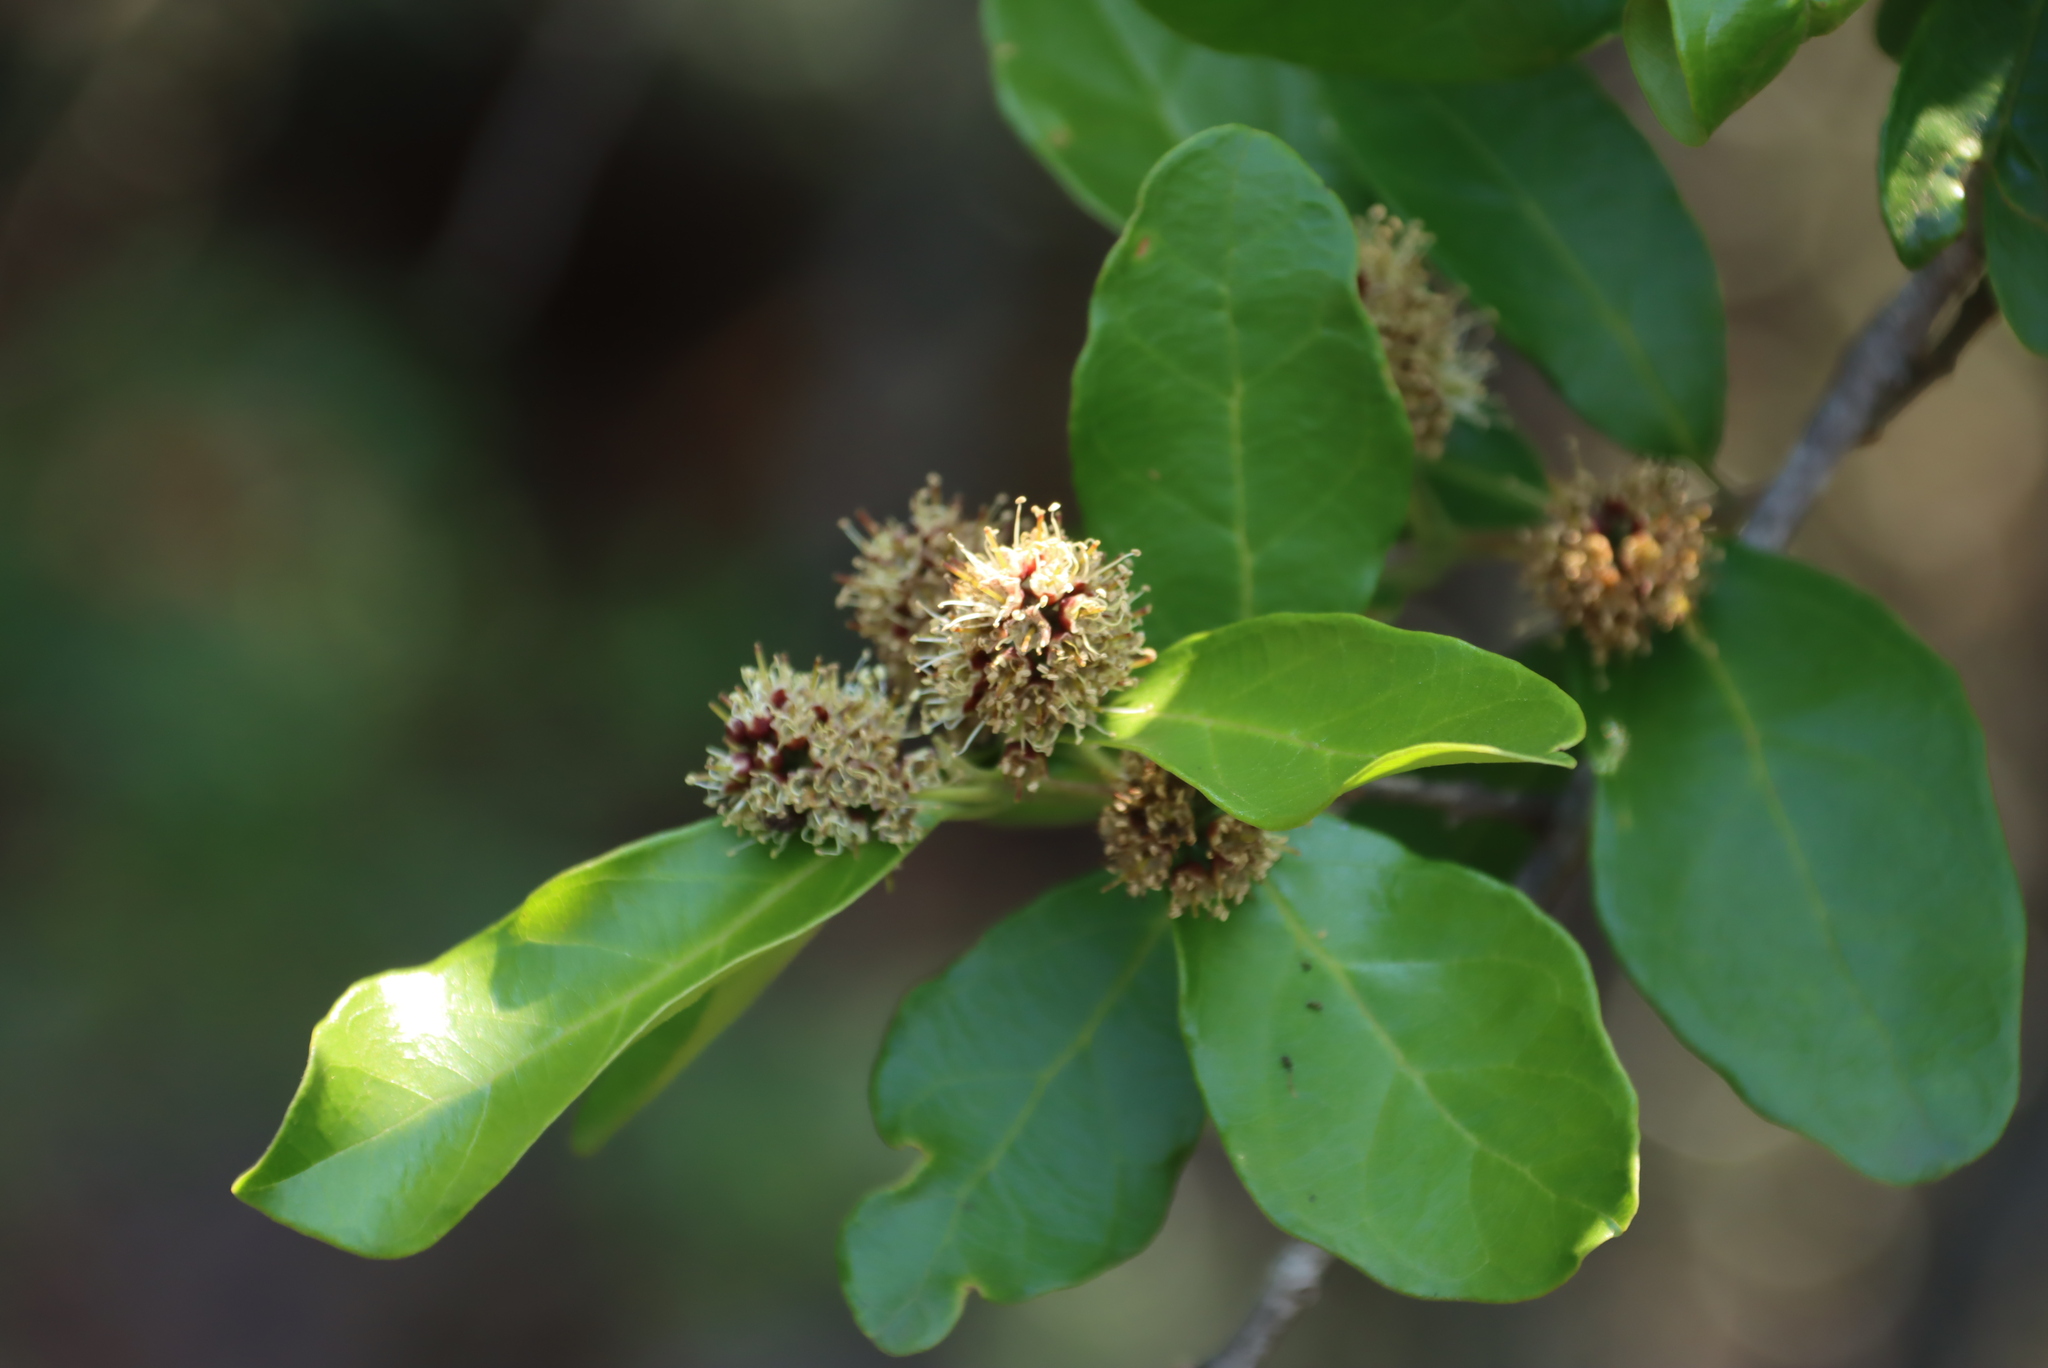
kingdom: Plantae
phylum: Tracheophyta
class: Magnoliopsida
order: Myrtales
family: Combretaceae
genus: Combretum
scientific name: Combretum kraussii
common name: Forest bushwillow
